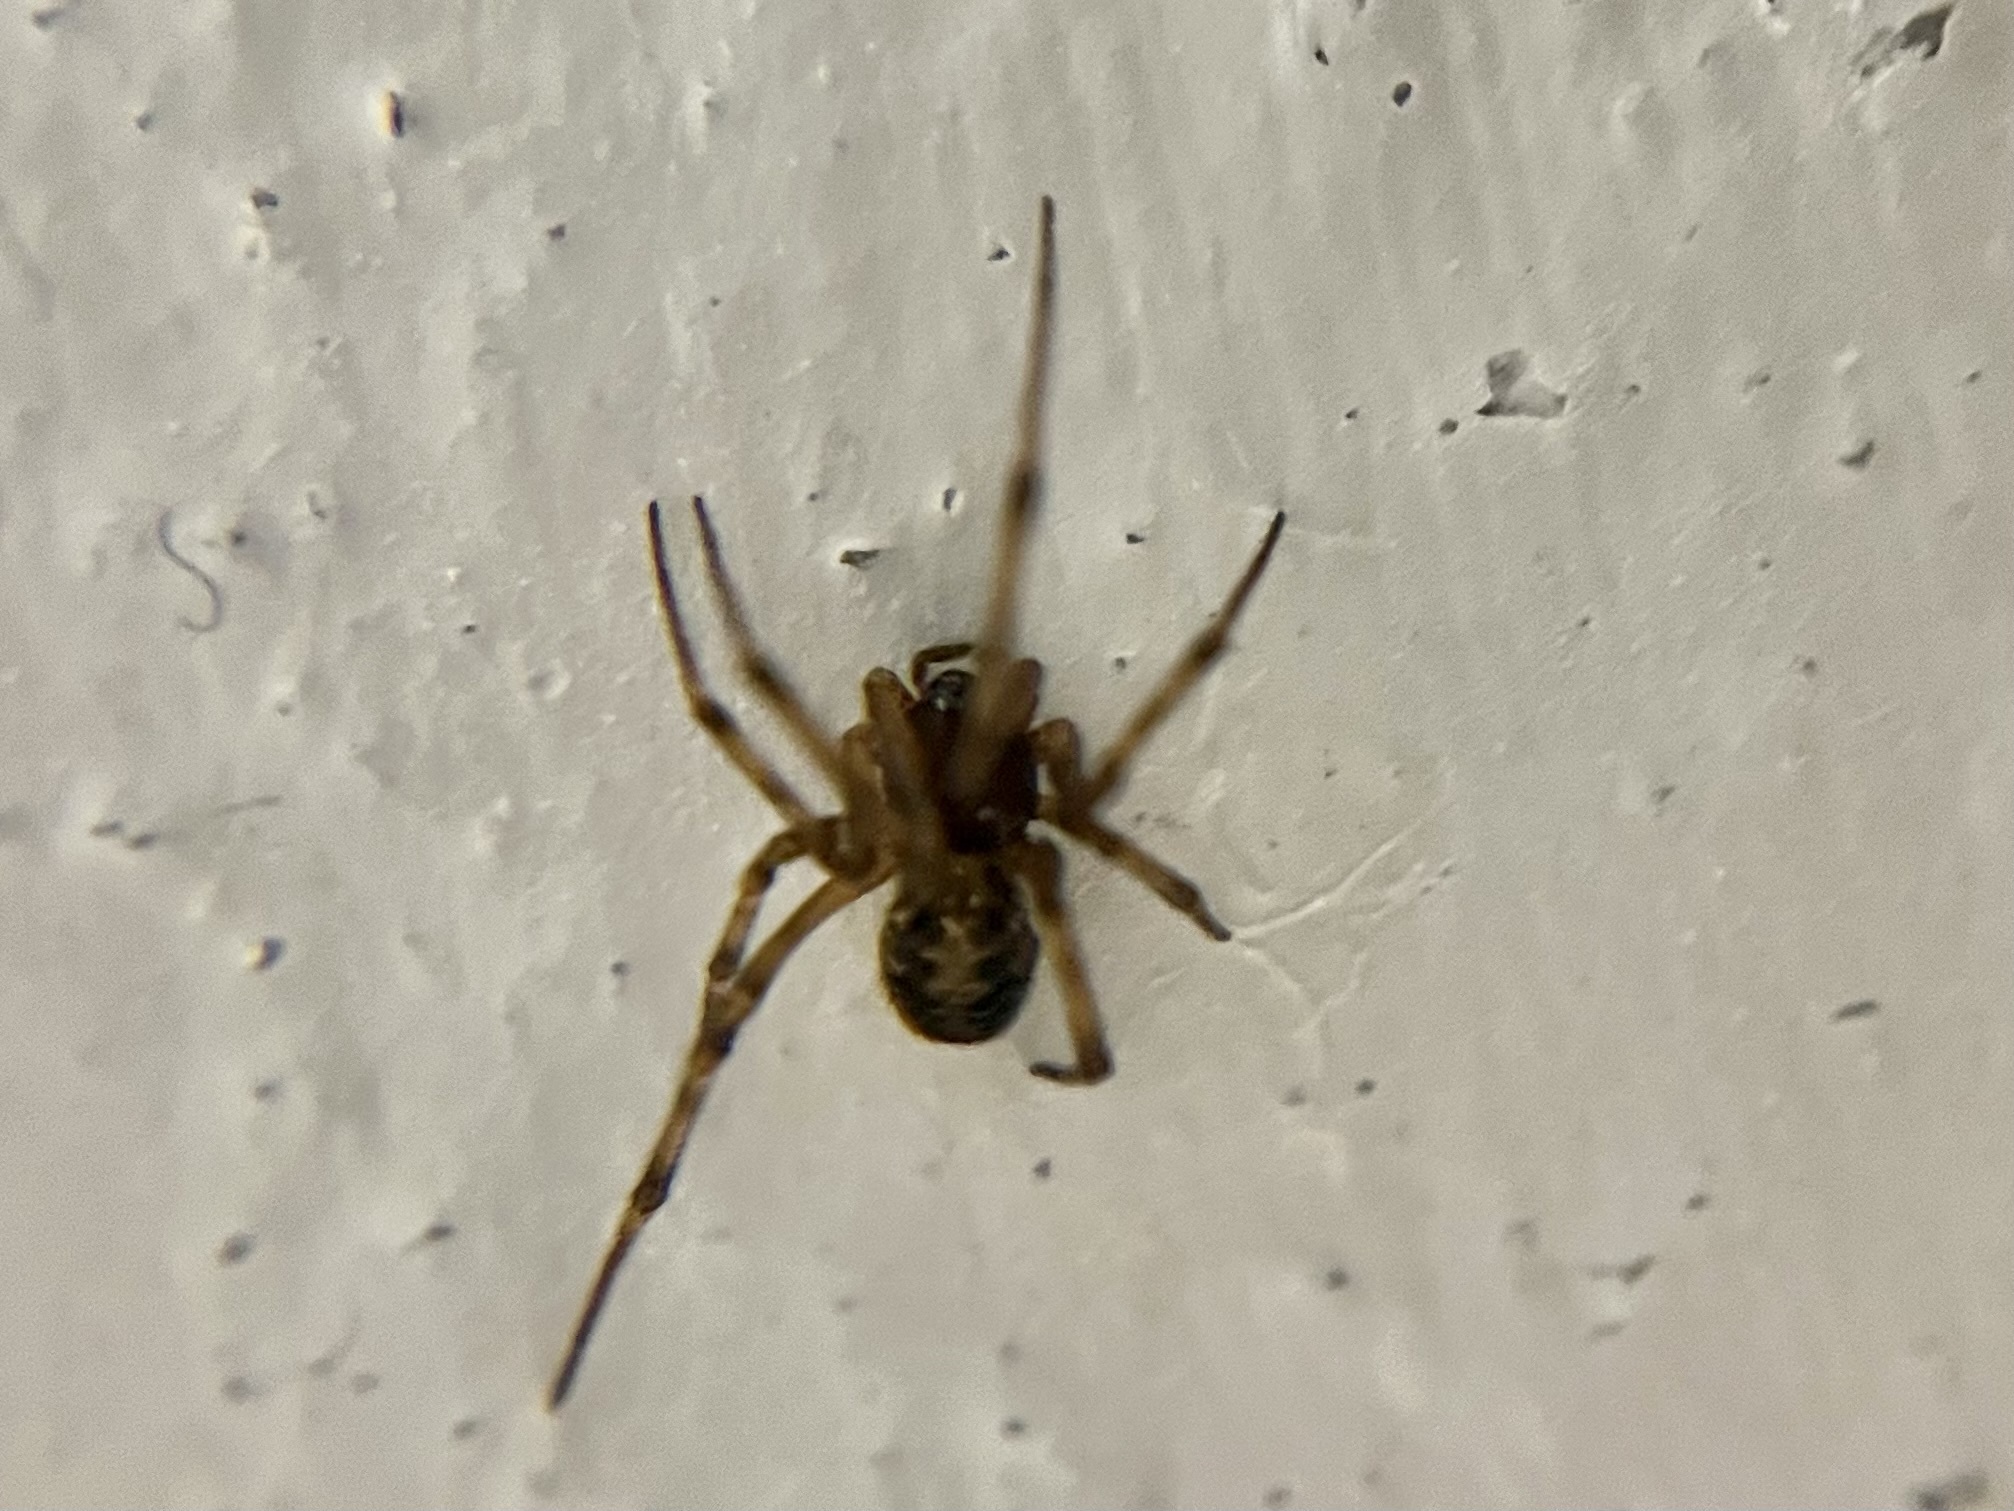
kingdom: Animalia
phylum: Arthropoda
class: Arachnida
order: Araneae
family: Theridiidae
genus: Steatoda
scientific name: Steatoda triangulosa
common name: Triangulate bud spider
